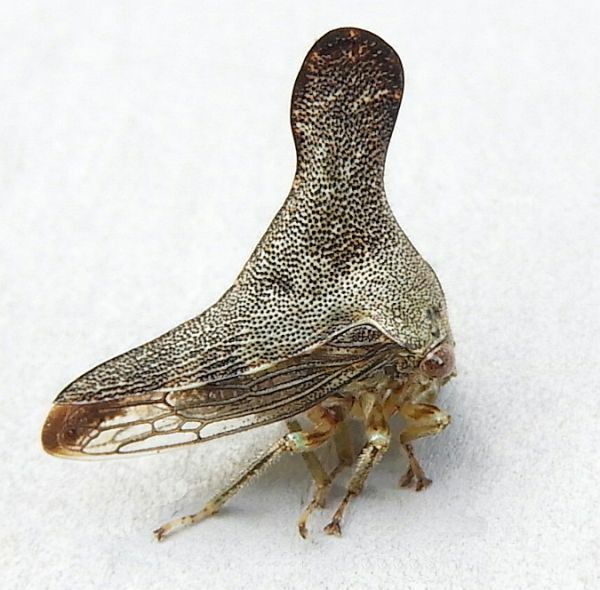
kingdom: Animalia
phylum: Arthropoda
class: Insecta
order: Hemiptera
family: Membracidae
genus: Glossonotus
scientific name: Glossonotus acuminata
